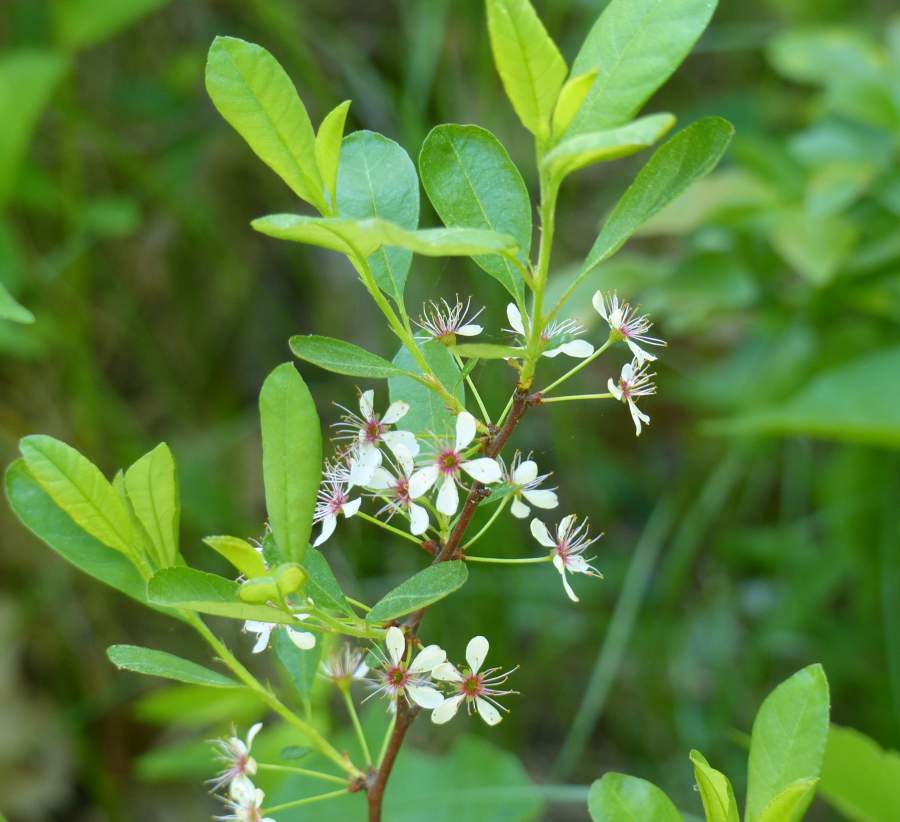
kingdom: Plantae
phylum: Tracheophyta
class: Magnoliopsida
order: Rosales
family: Rosaceae
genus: Prunus
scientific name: Prunus susquehanae
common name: Sesquehana sandcherry
